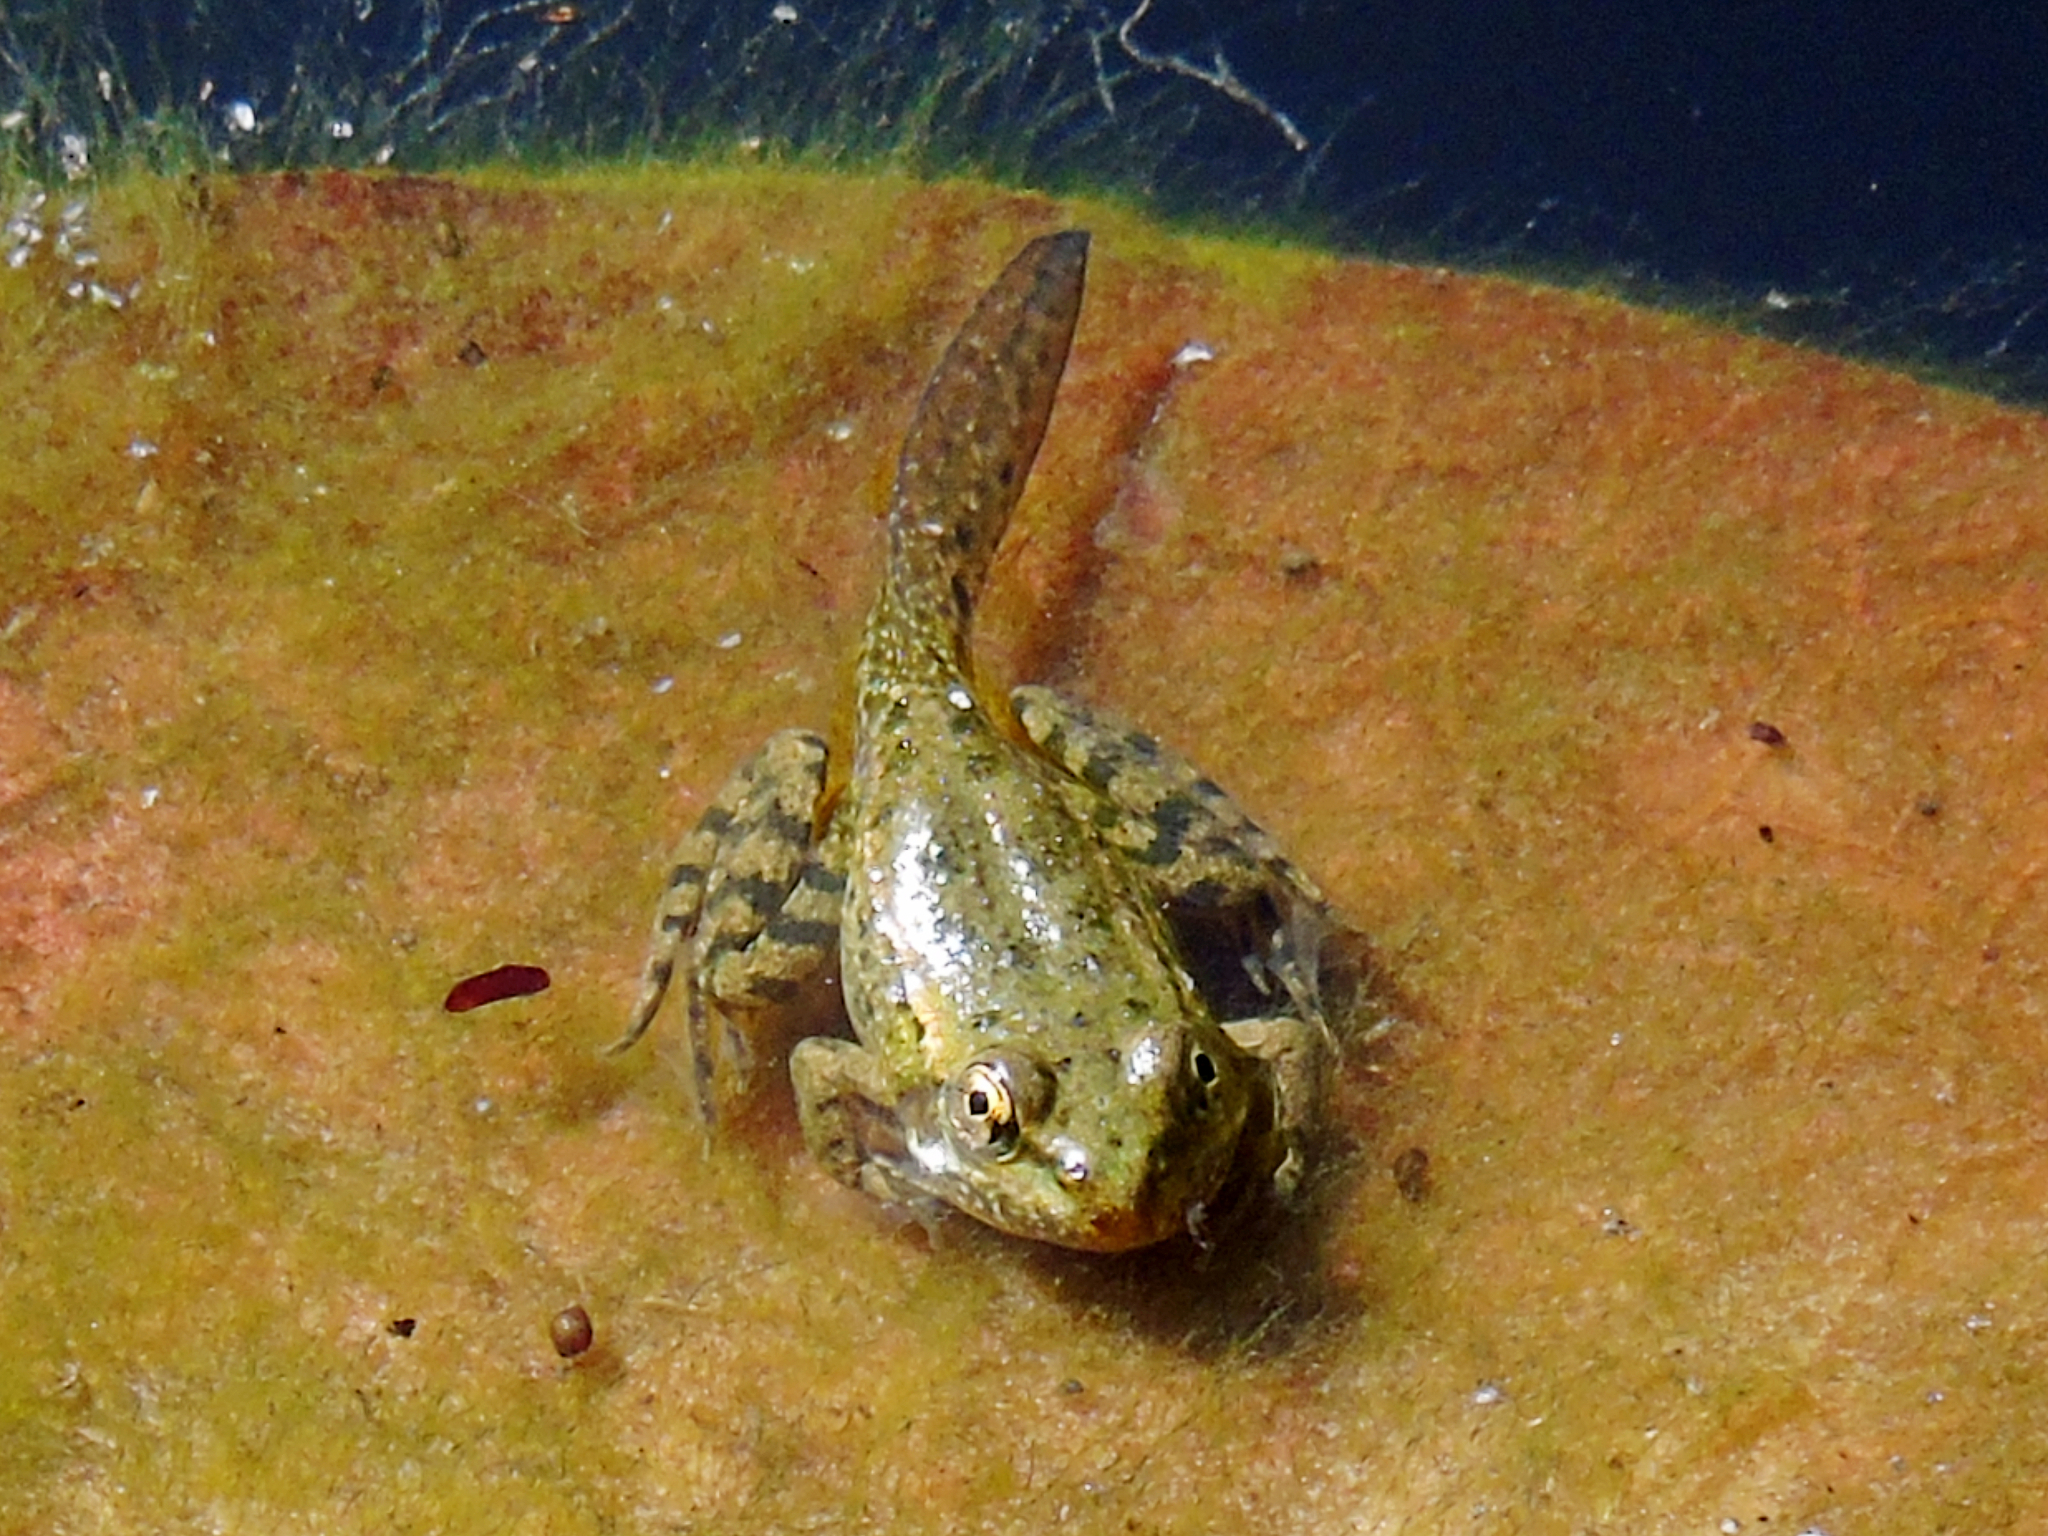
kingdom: Animalia
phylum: Chordata
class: Amphibia
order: Anura
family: Ranidae
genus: Pelophylax
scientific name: Pelophylax ridibundus
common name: Marsh frog
